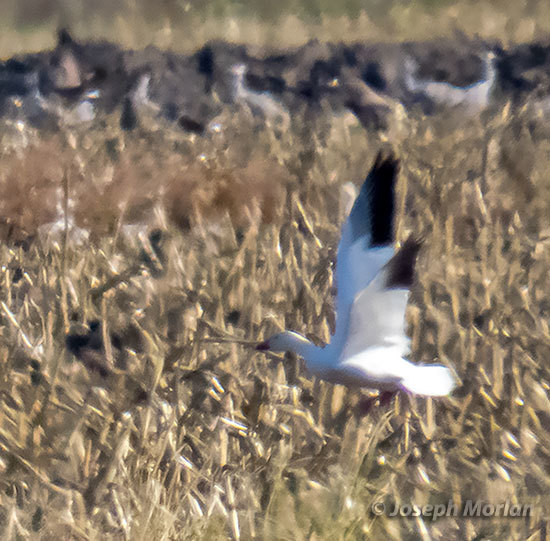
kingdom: Animalia
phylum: Chordata
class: Aves
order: Anseriformes
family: Anatidae
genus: Anser
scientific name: Anser caerulescens
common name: Snow goose
